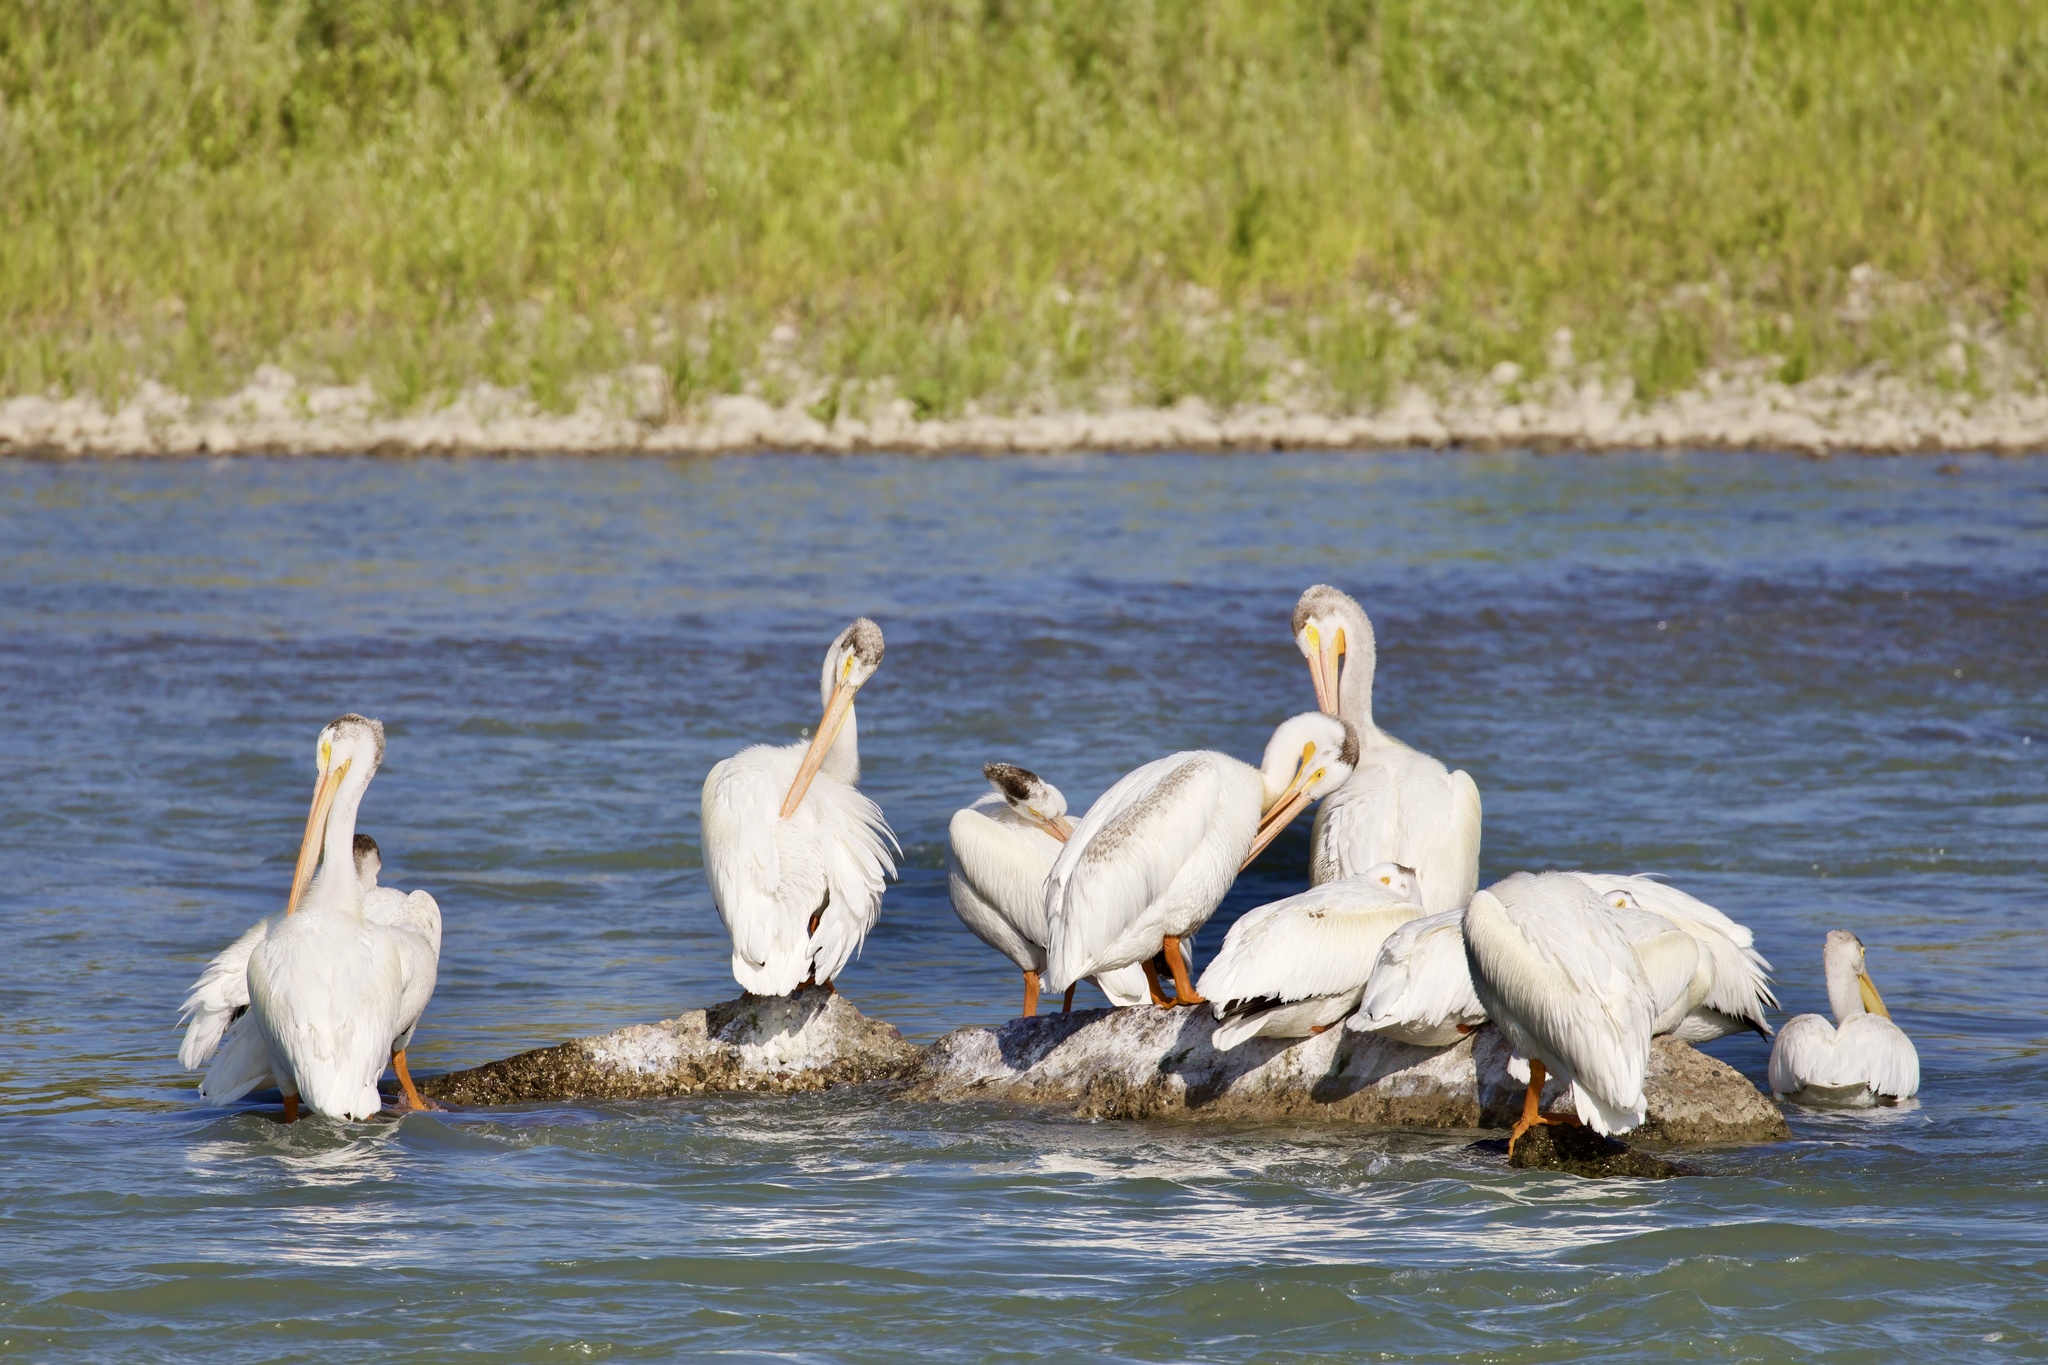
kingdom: Animalia
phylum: Chordata
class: Aves
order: Pelecaniformes
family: Pelecanidae
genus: Pelecanus
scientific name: Pelecanus erythrorhynchos
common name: American white pelican
